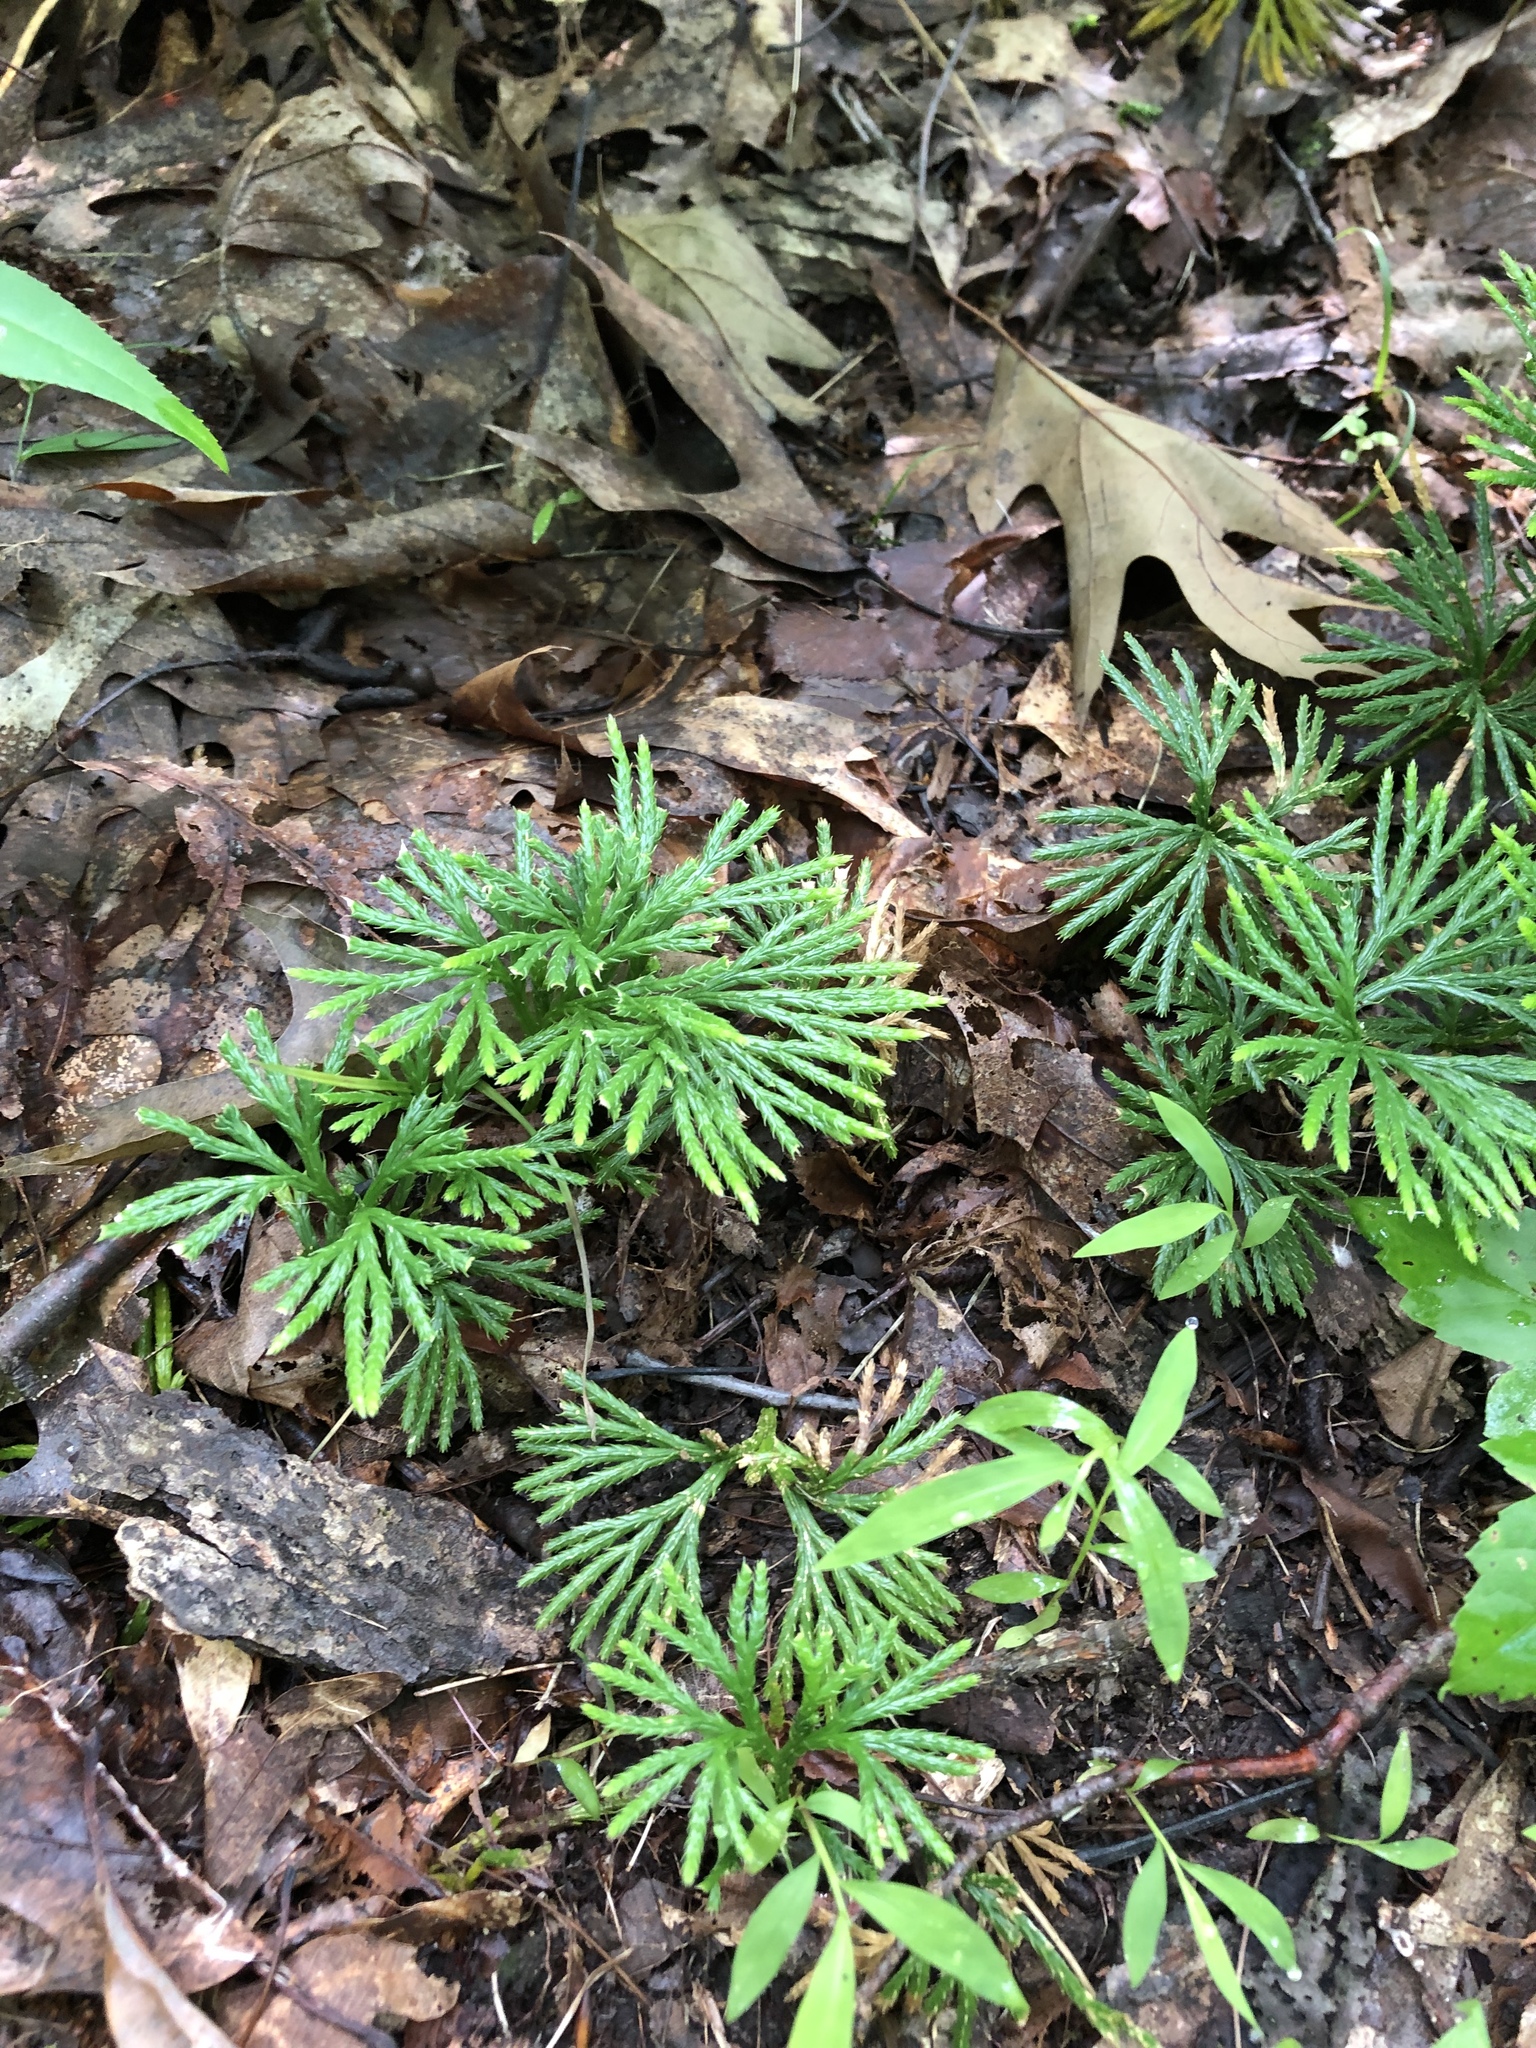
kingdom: Plantae
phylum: Tracheophyta
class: Lycopodiopsida
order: Lycopodiales
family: Lycopodiaceae
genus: Diphasiastrum
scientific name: Diphasiastrum digitatum
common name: Southern running-pine
